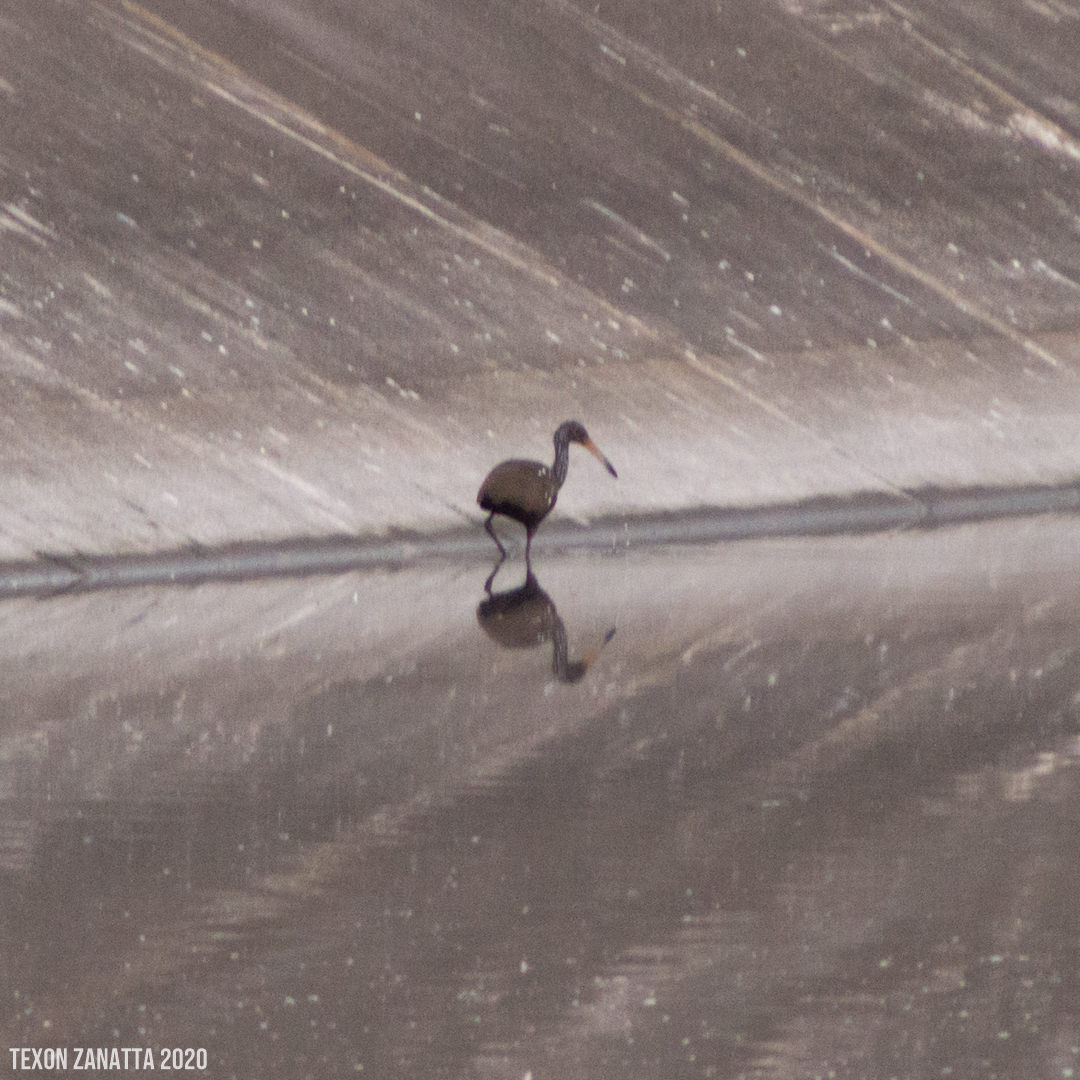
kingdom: Animalia
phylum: Chordata
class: Aves
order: Gruiformes
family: Aramidae
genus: Aramus
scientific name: Aramus guarauna
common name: Limpkin
